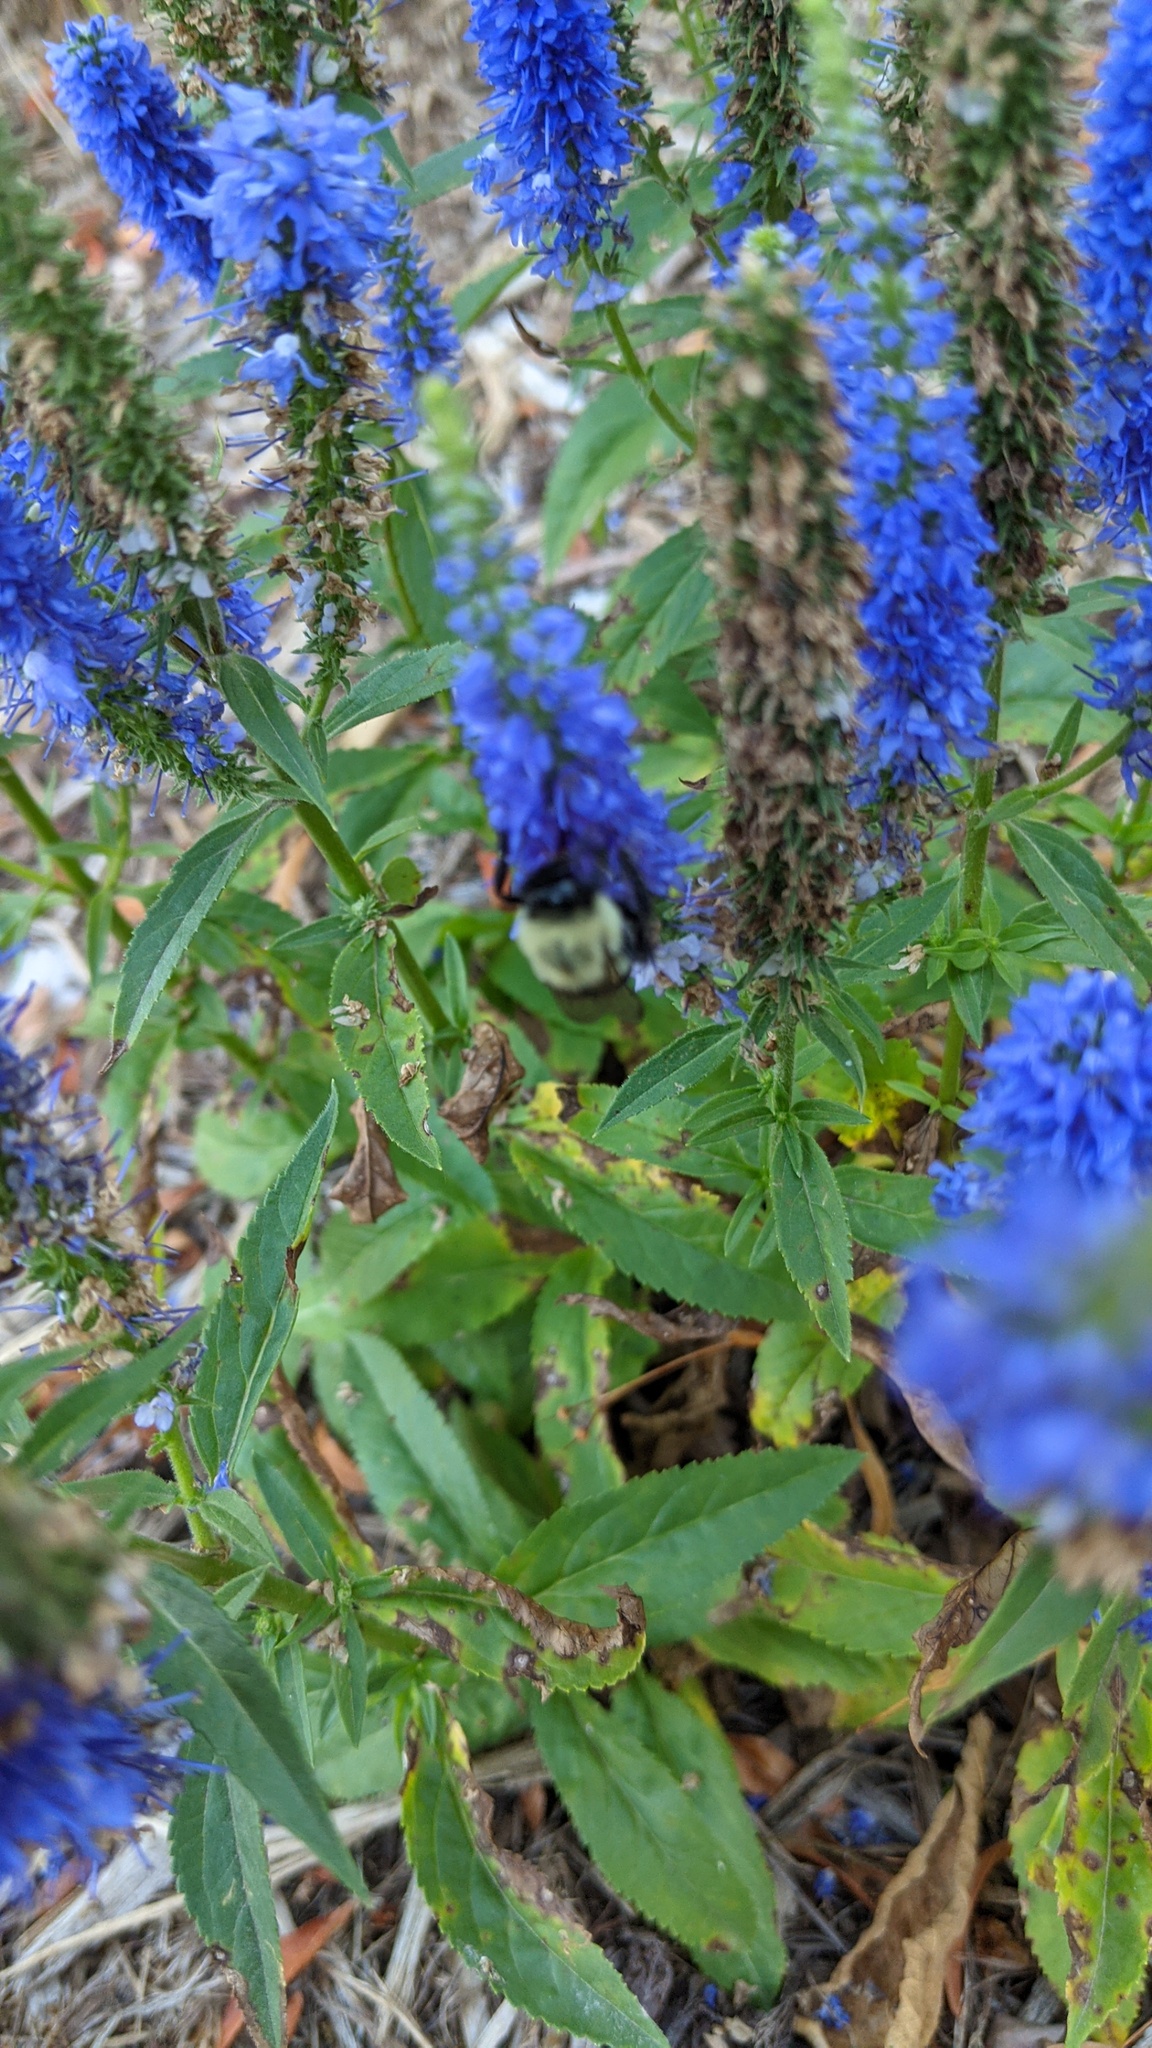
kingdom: Animalia
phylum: Arthropoda
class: Insecta
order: Hymenoptera
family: Apidae
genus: Bombus
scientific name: Bombus impatiens
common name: Common eastern bumble bee
